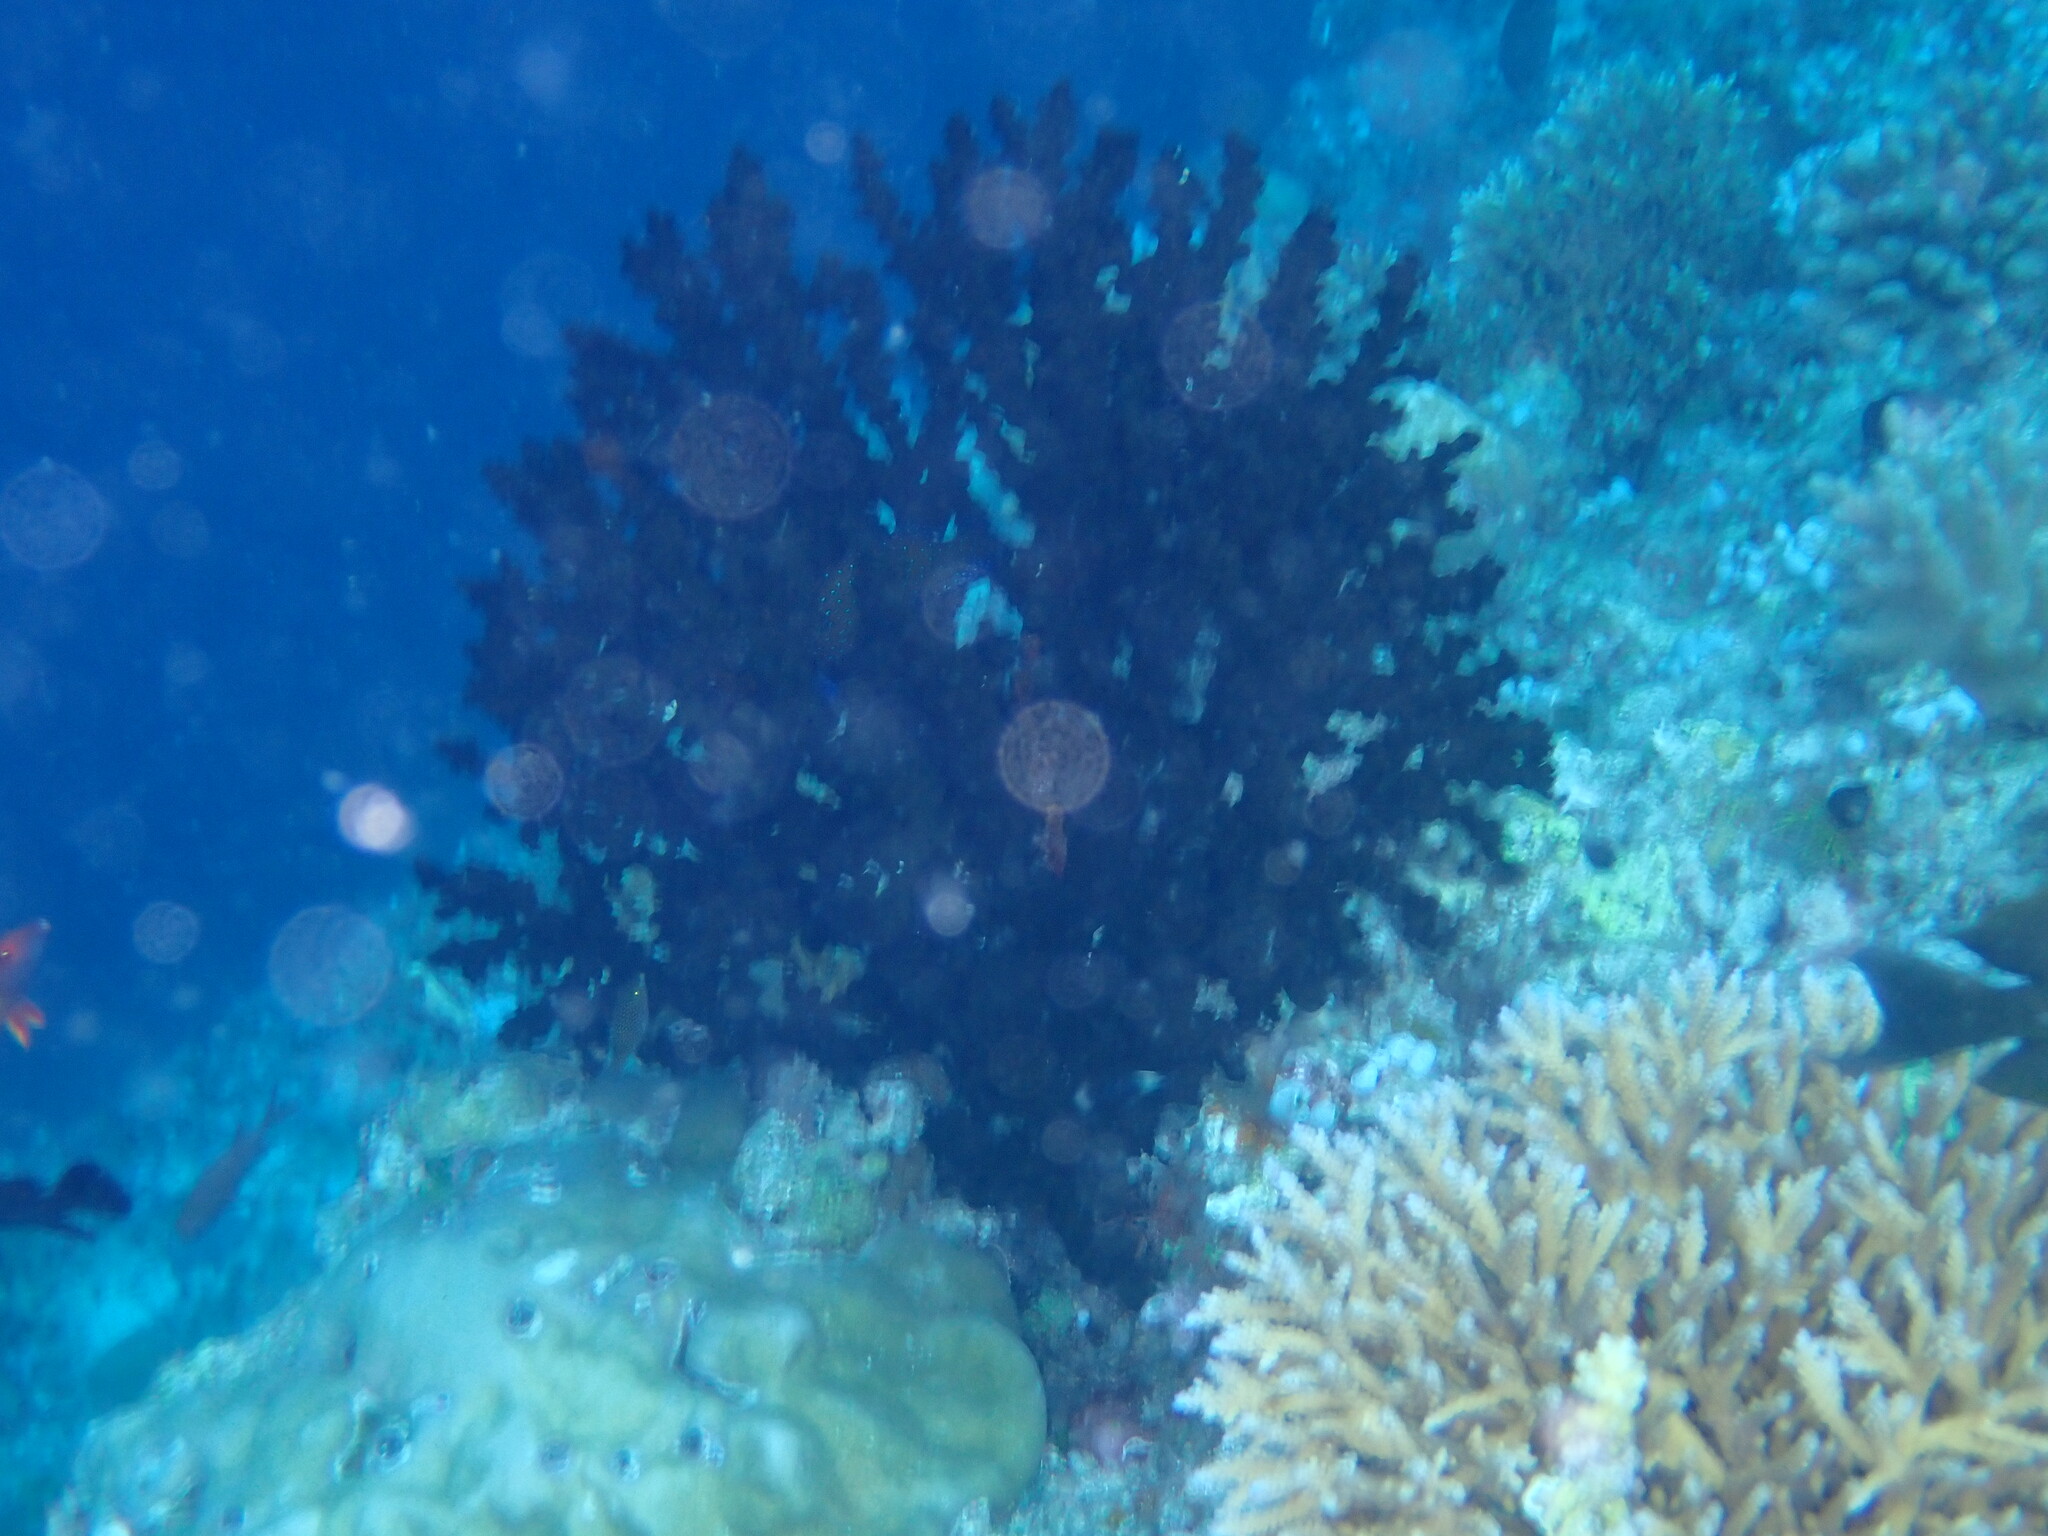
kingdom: Animalia
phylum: Cnidaria
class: Anthozoa
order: Scleractinia
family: Dendrophylliidae
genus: Tubastraea
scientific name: Tubastraea micranthus
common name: Black sun coral
